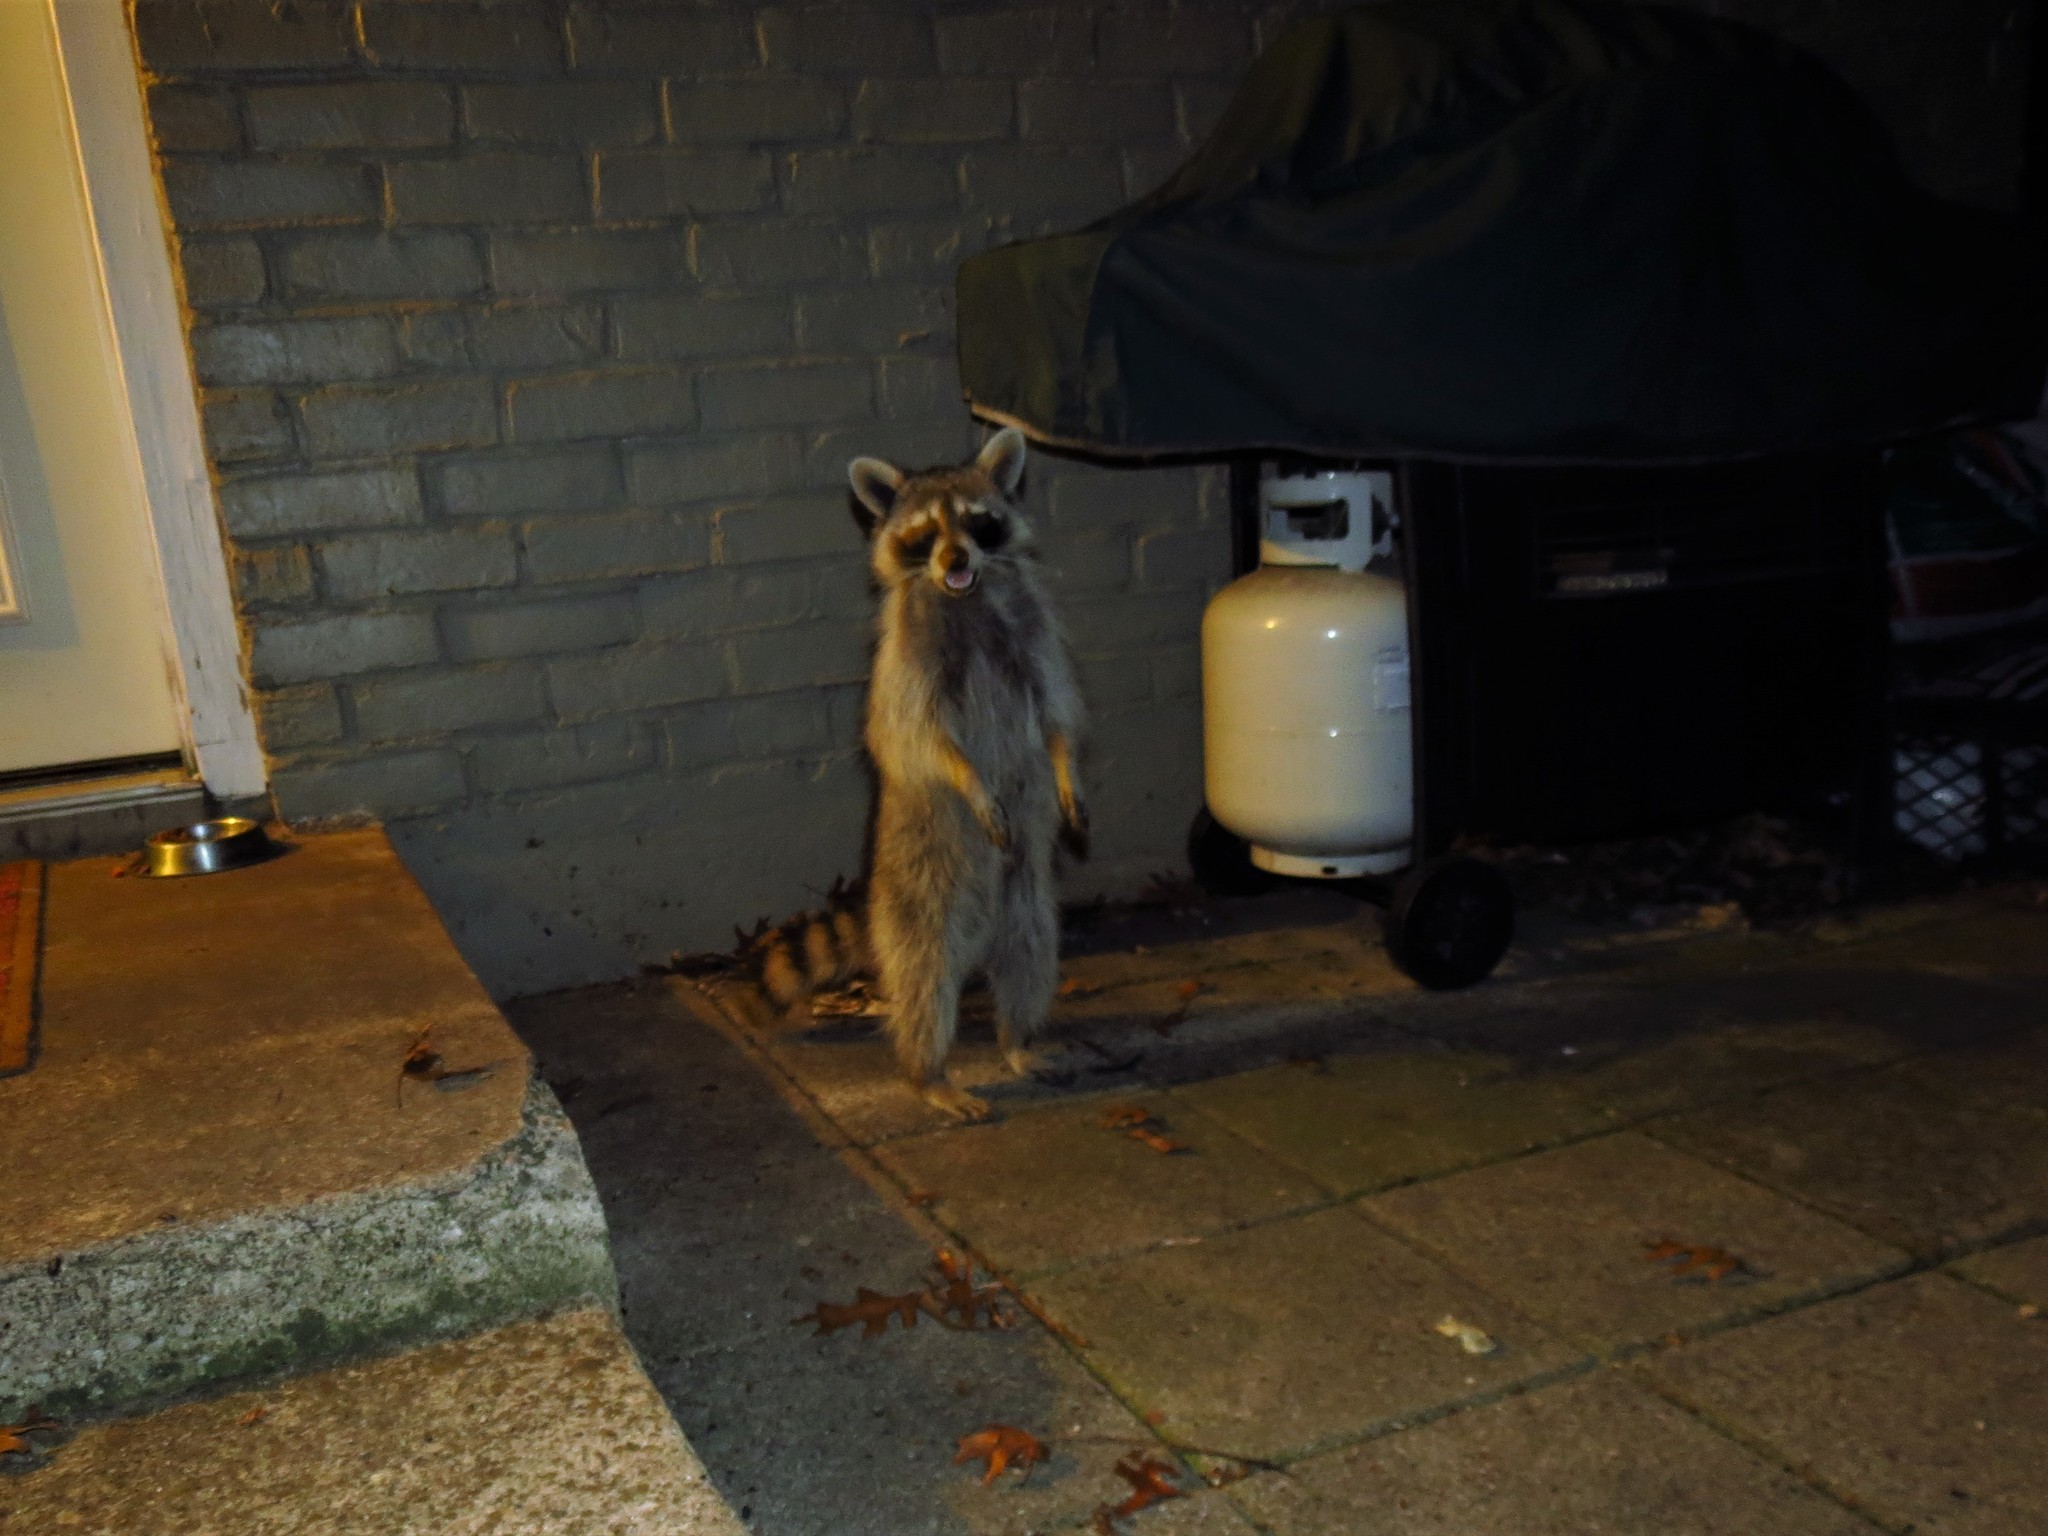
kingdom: Animalia
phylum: Chordata
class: Mammalia
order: Carnivora
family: Procyonidae
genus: Procyon
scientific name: Procyon lotor
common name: Raccoon
